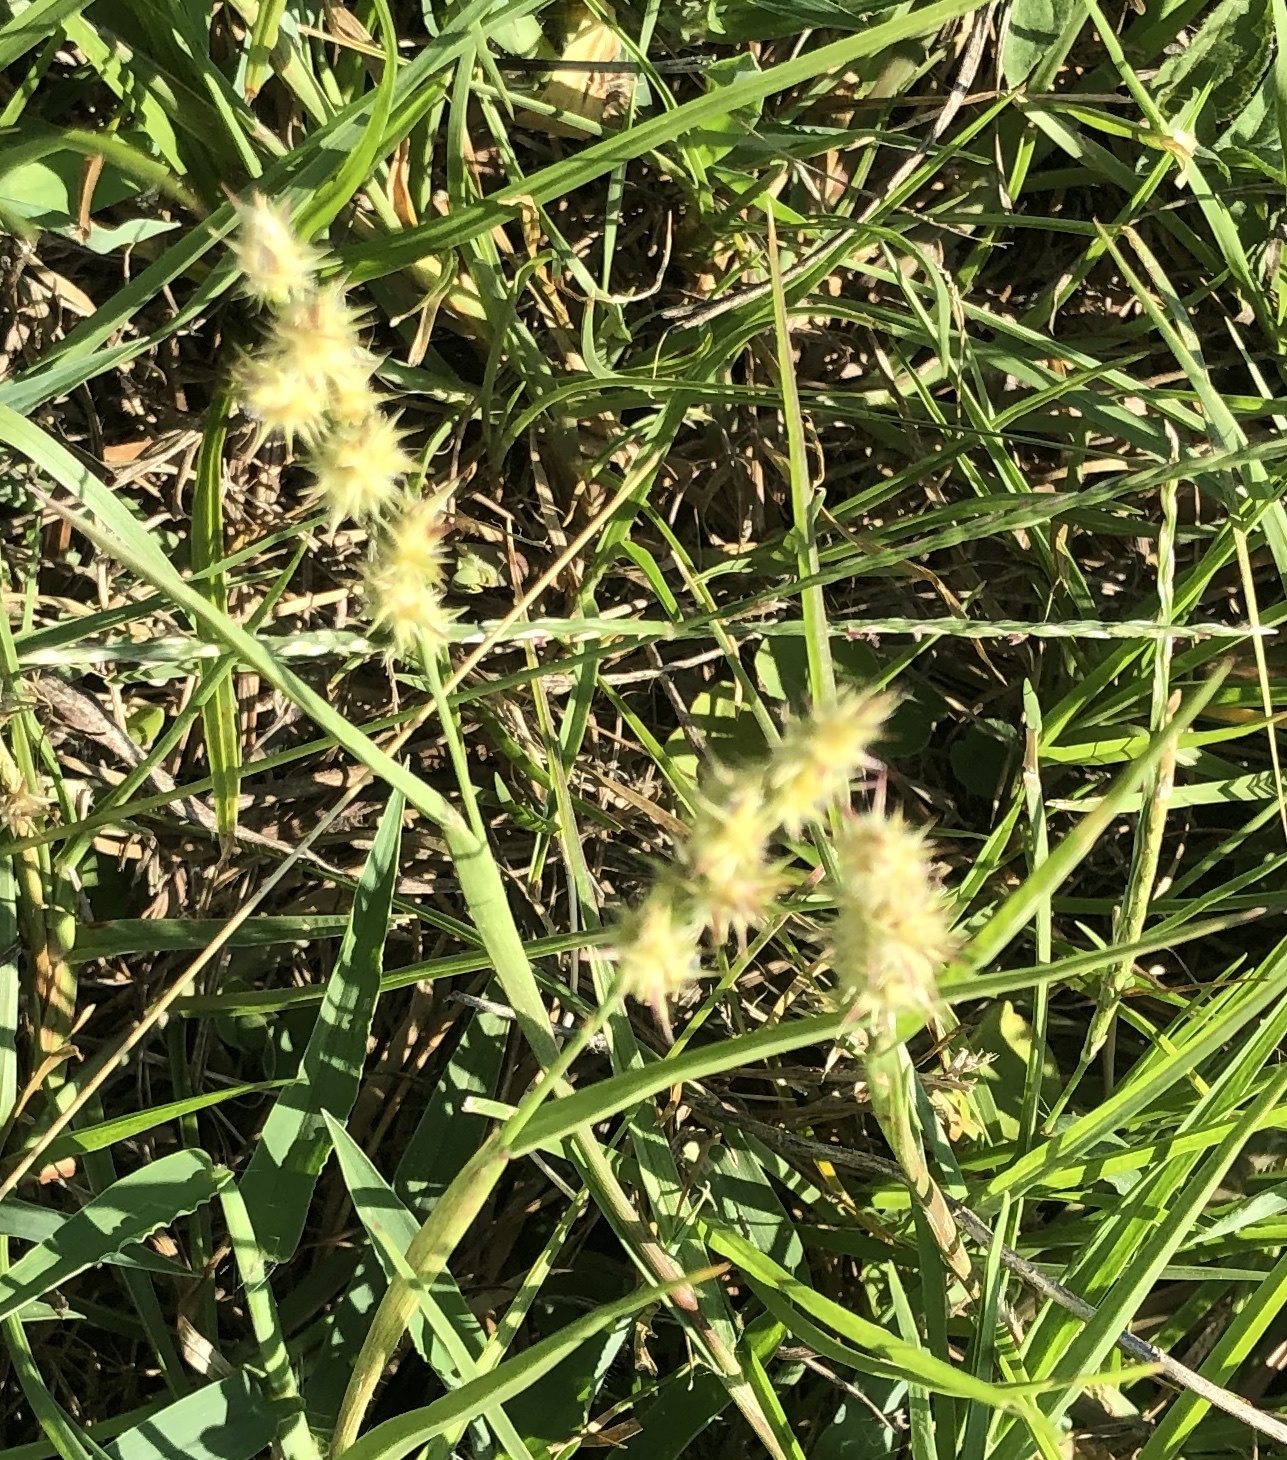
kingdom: Plantae
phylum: Tracheophyta
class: Liliopsida
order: Poales
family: Poaceae
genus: Cenchrus
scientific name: Cenchrus spinifex
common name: Coast sandbur
